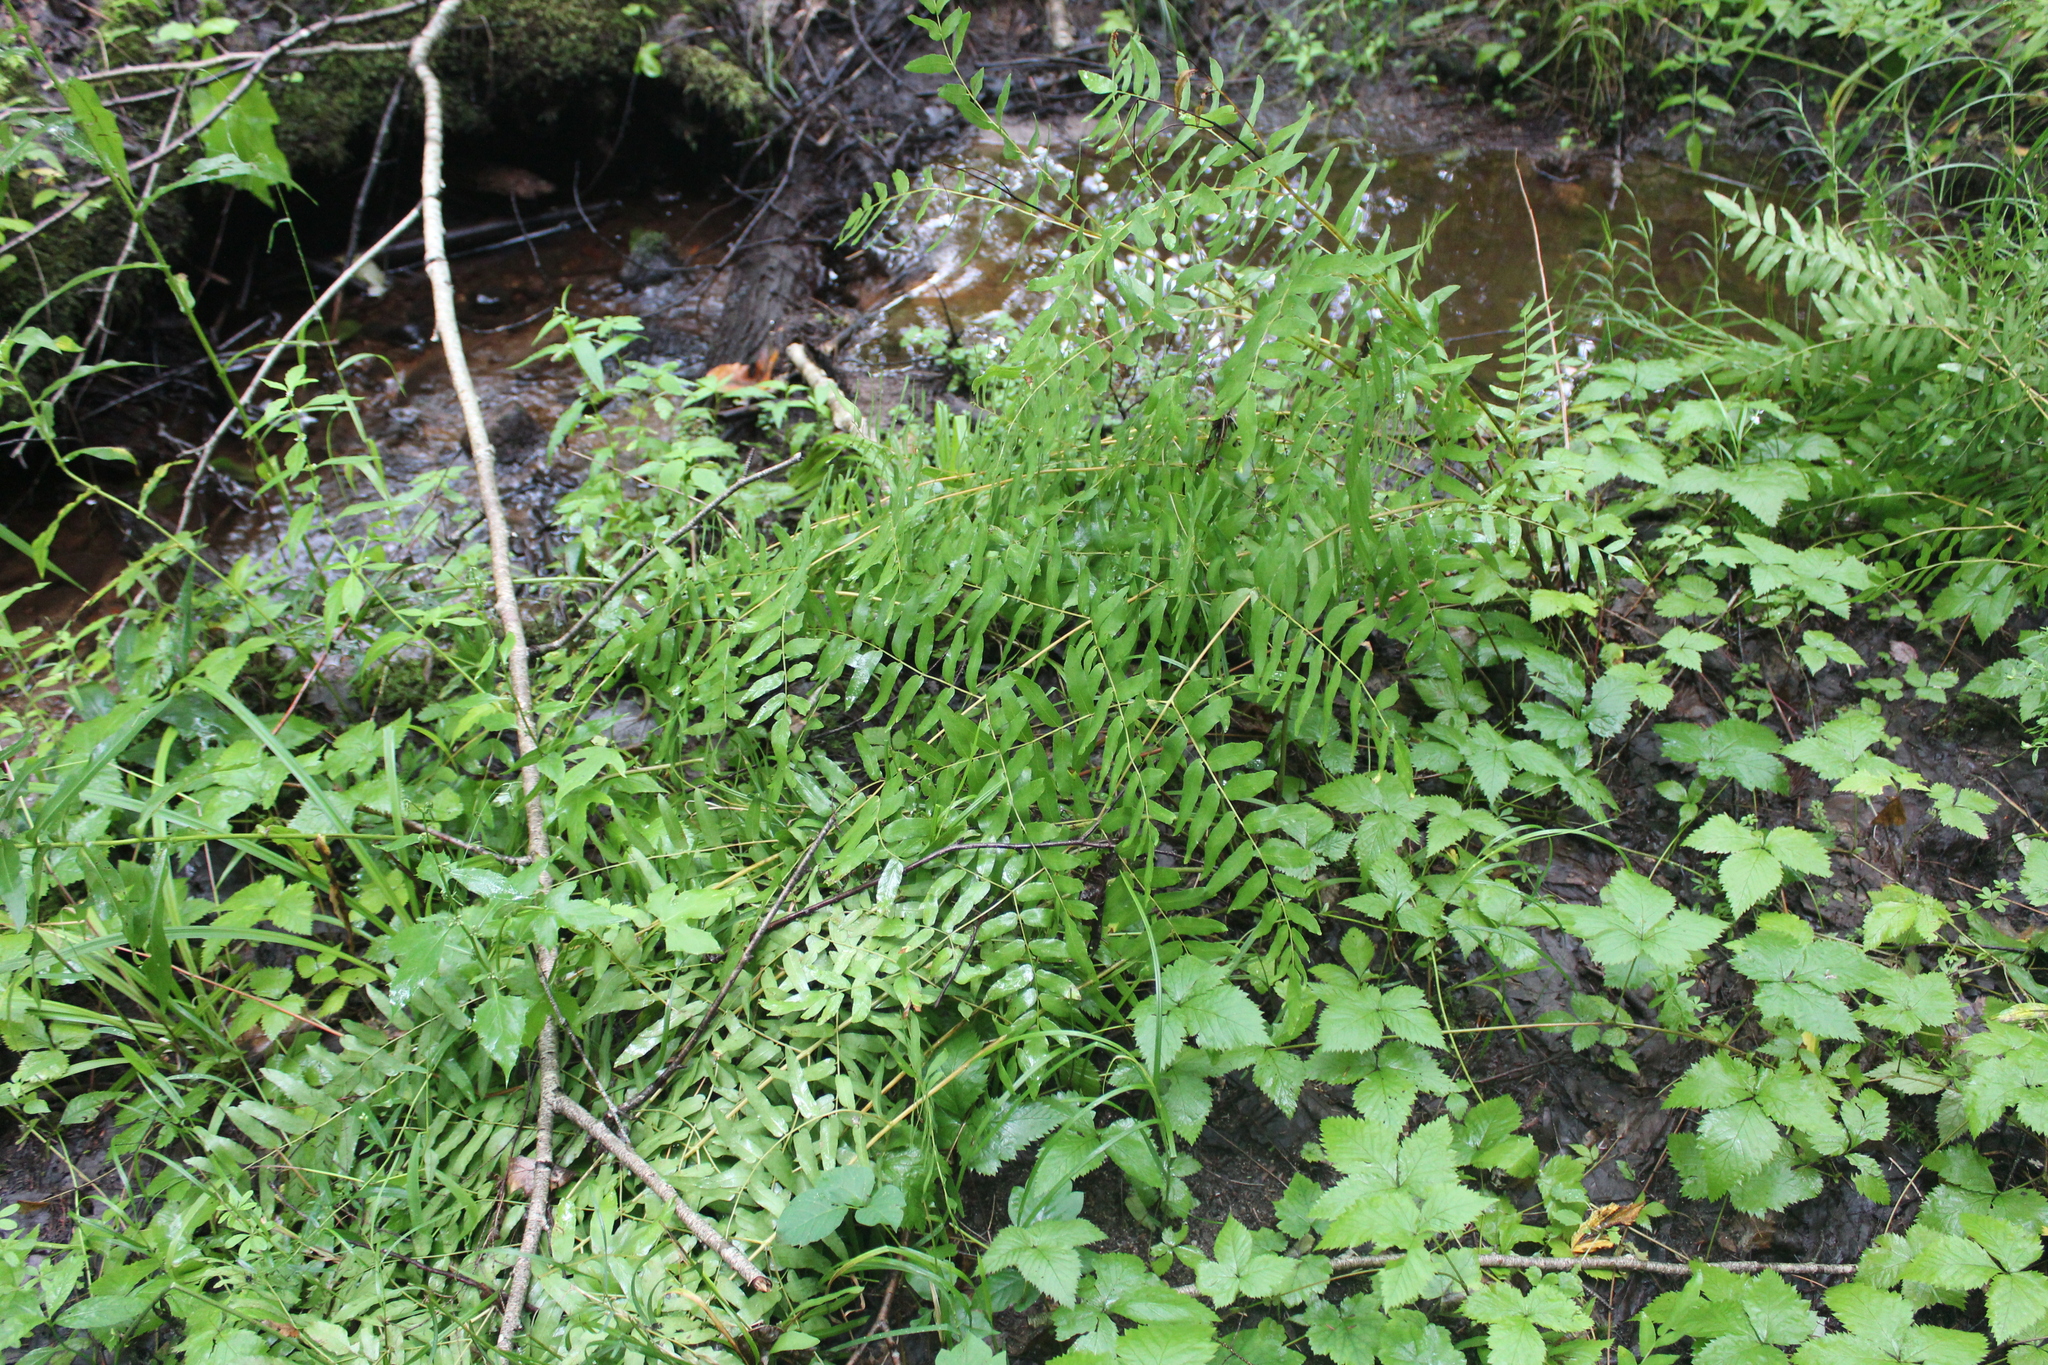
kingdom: Plantae
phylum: Tracheophyta
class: Polypodiopsida
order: Osmundales
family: Osmundaceae
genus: Osmunda
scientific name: Osmunda spectabilis
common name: American royal fern
